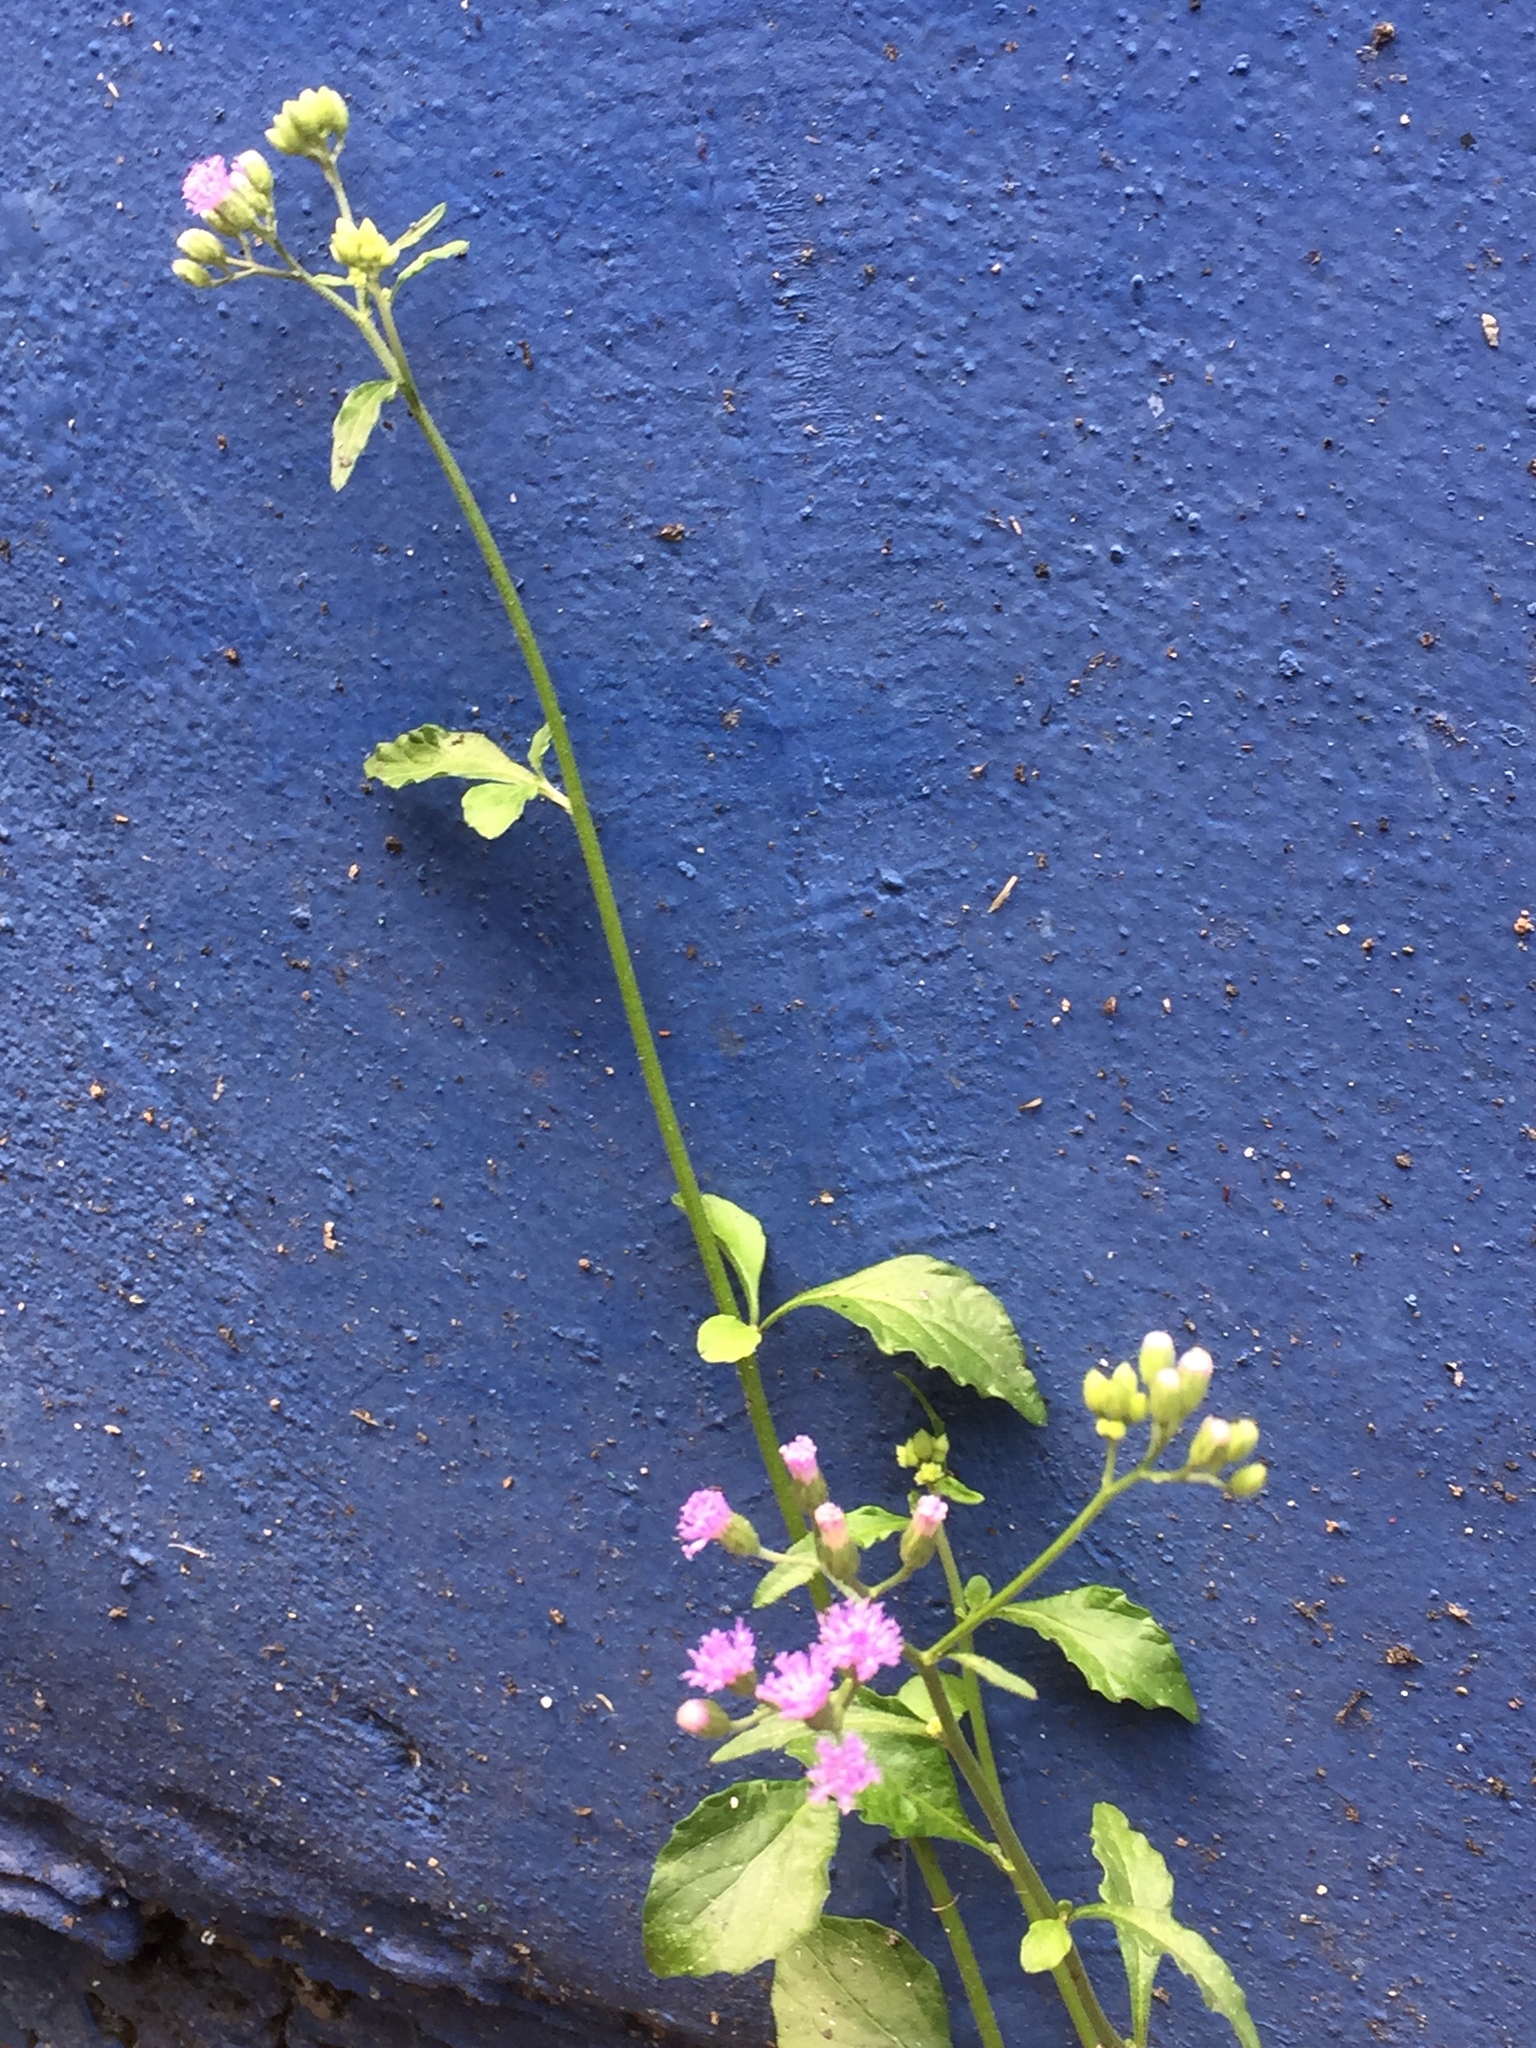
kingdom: Plantae
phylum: Tracheophyta
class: Magnoliopsida
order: Asterales
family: Asteraceae
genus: Cyanthillium
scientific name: Cyanthillium cinereum
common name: Little ironweed
